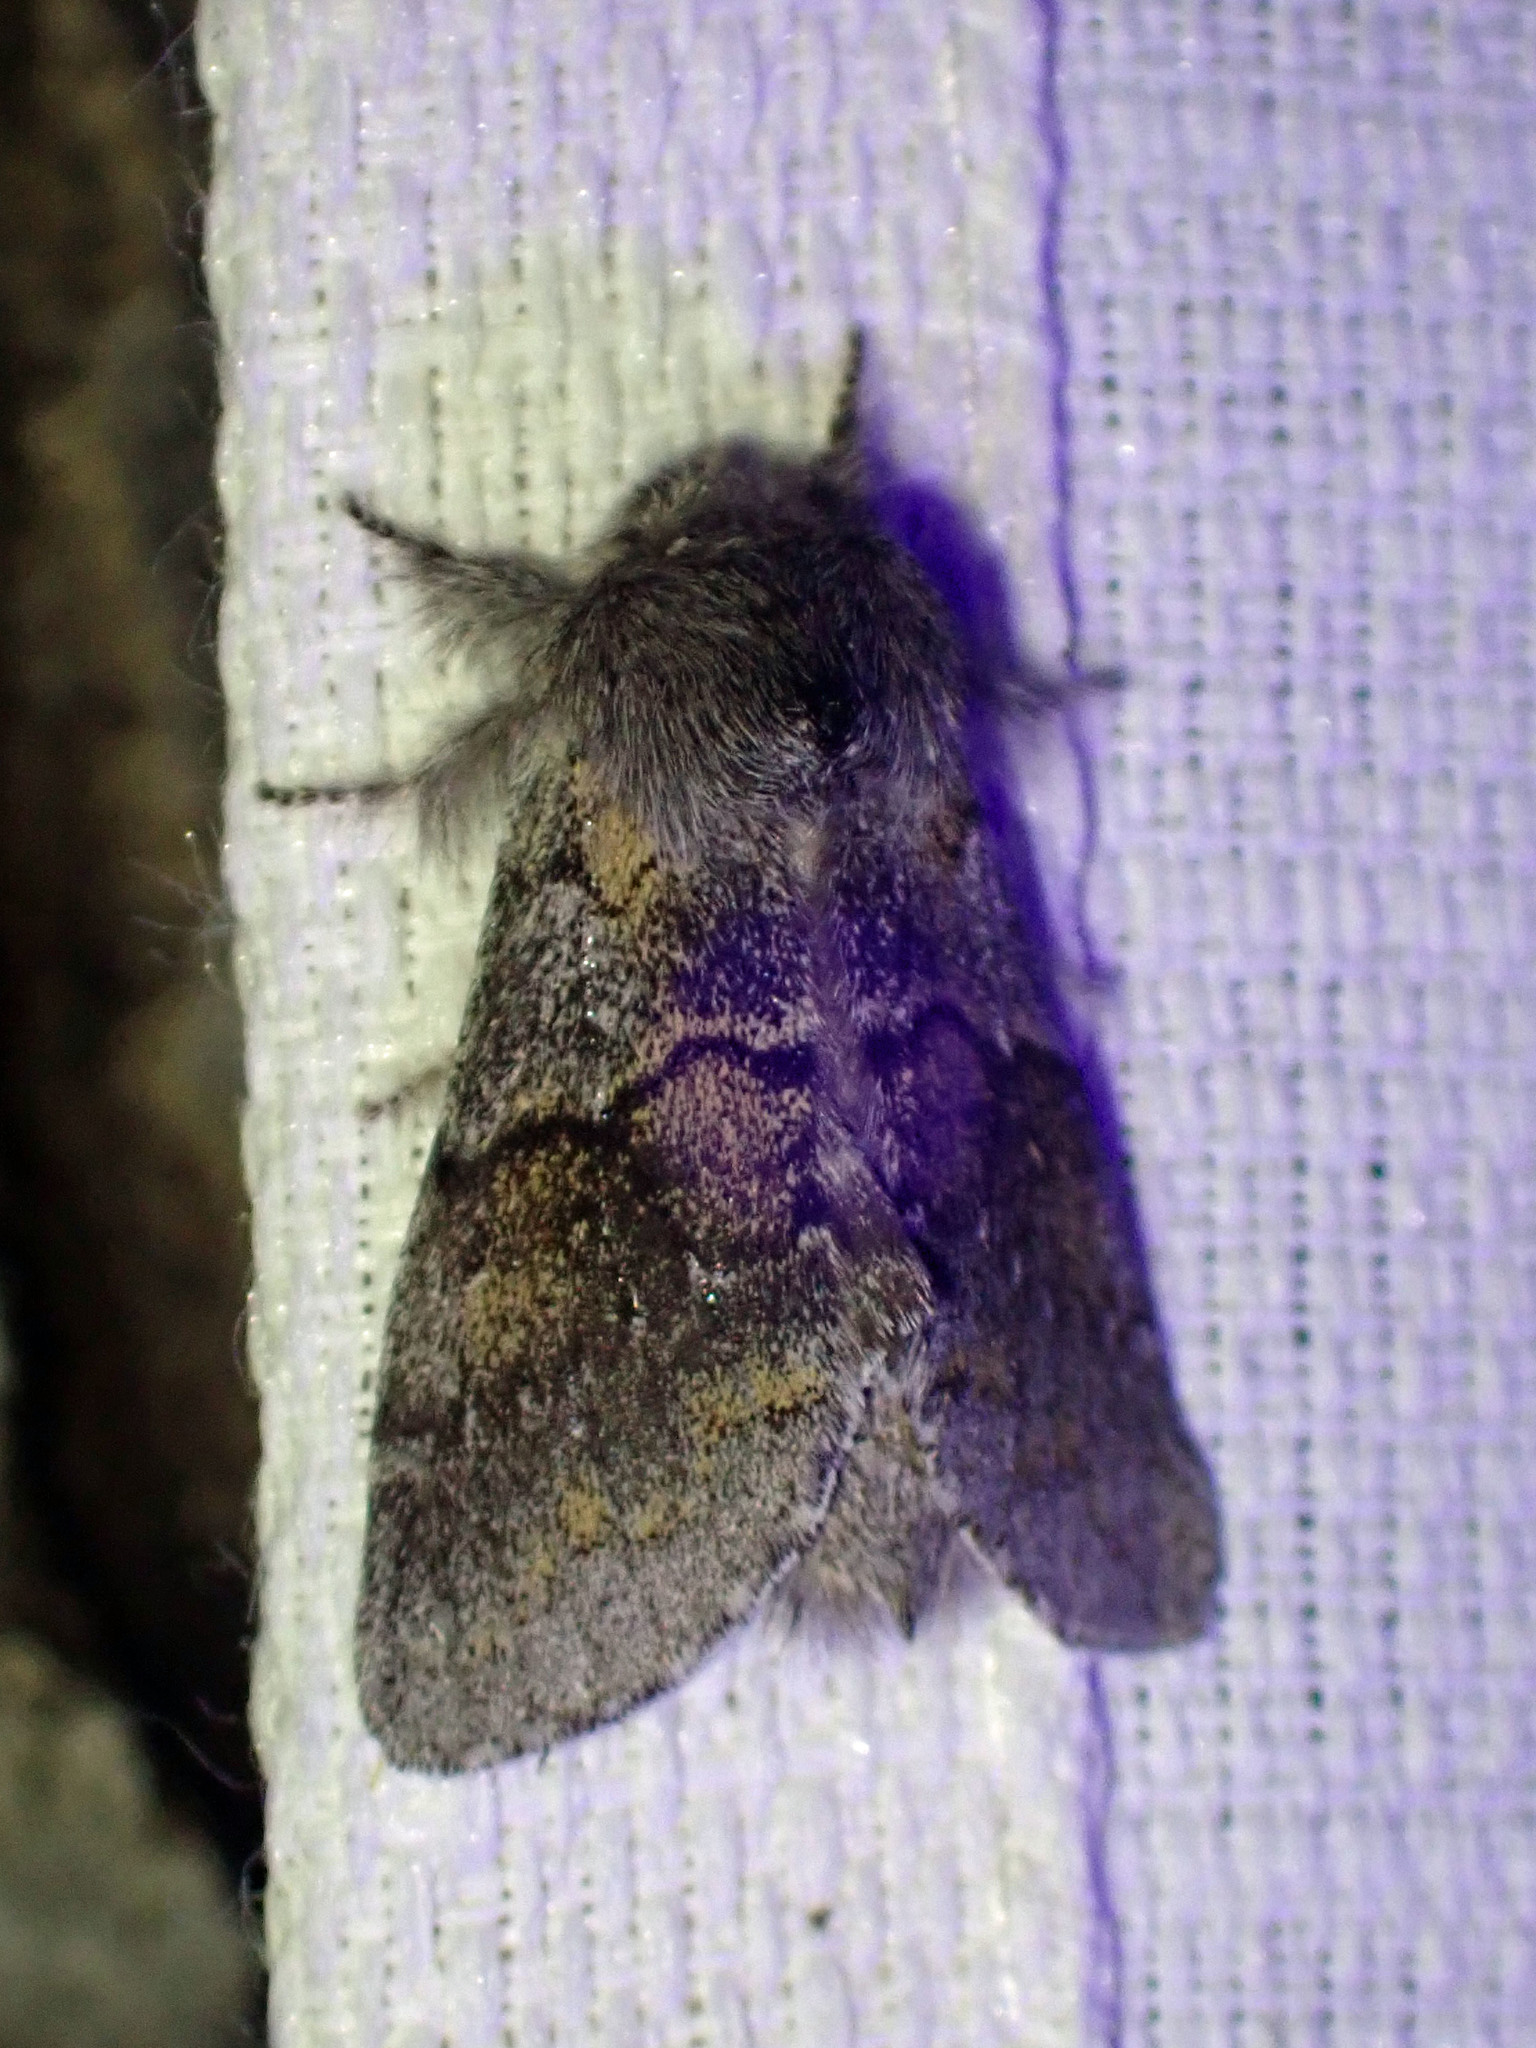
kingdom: Animalia
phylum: Arthropoda
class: Insecta
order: Lepidoptera
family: Notodontidae
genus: Gluphisia
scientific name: Gluphisia lintneri
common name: Lintner's gluphisia moth
